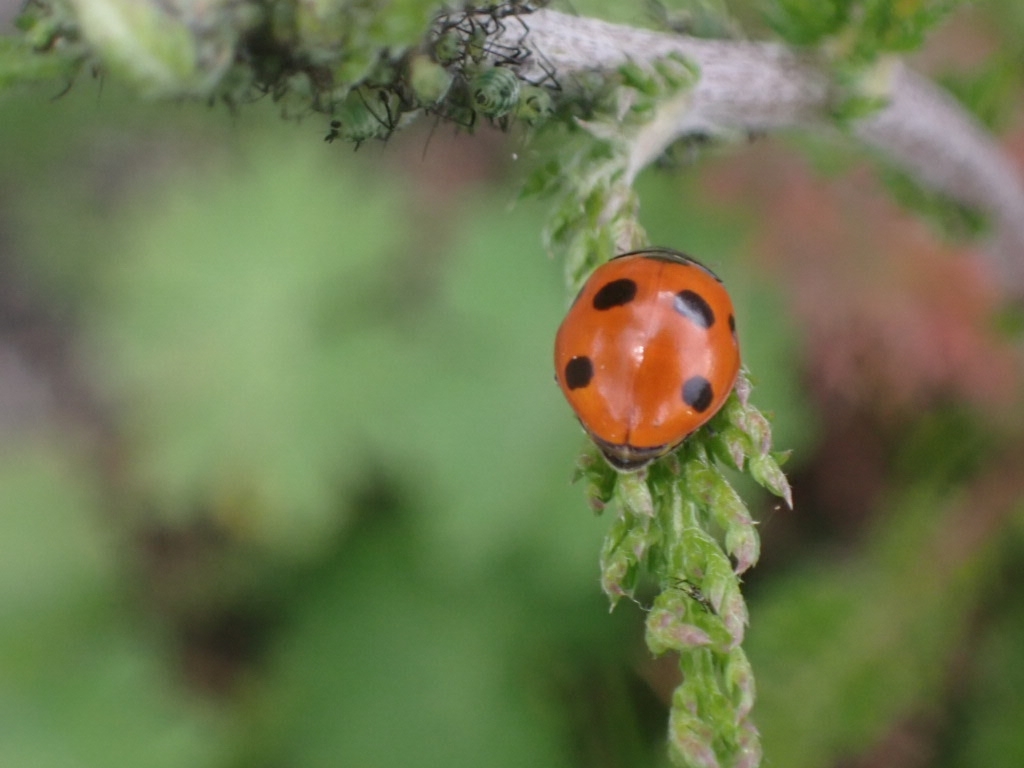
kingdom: Animalia
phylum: Arthropoda
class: Insecta
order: Coleoptera
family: Coccinellidae
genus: Coccinella
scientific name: Coccinella septempunctata
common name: Sevenspotted lady beetle
